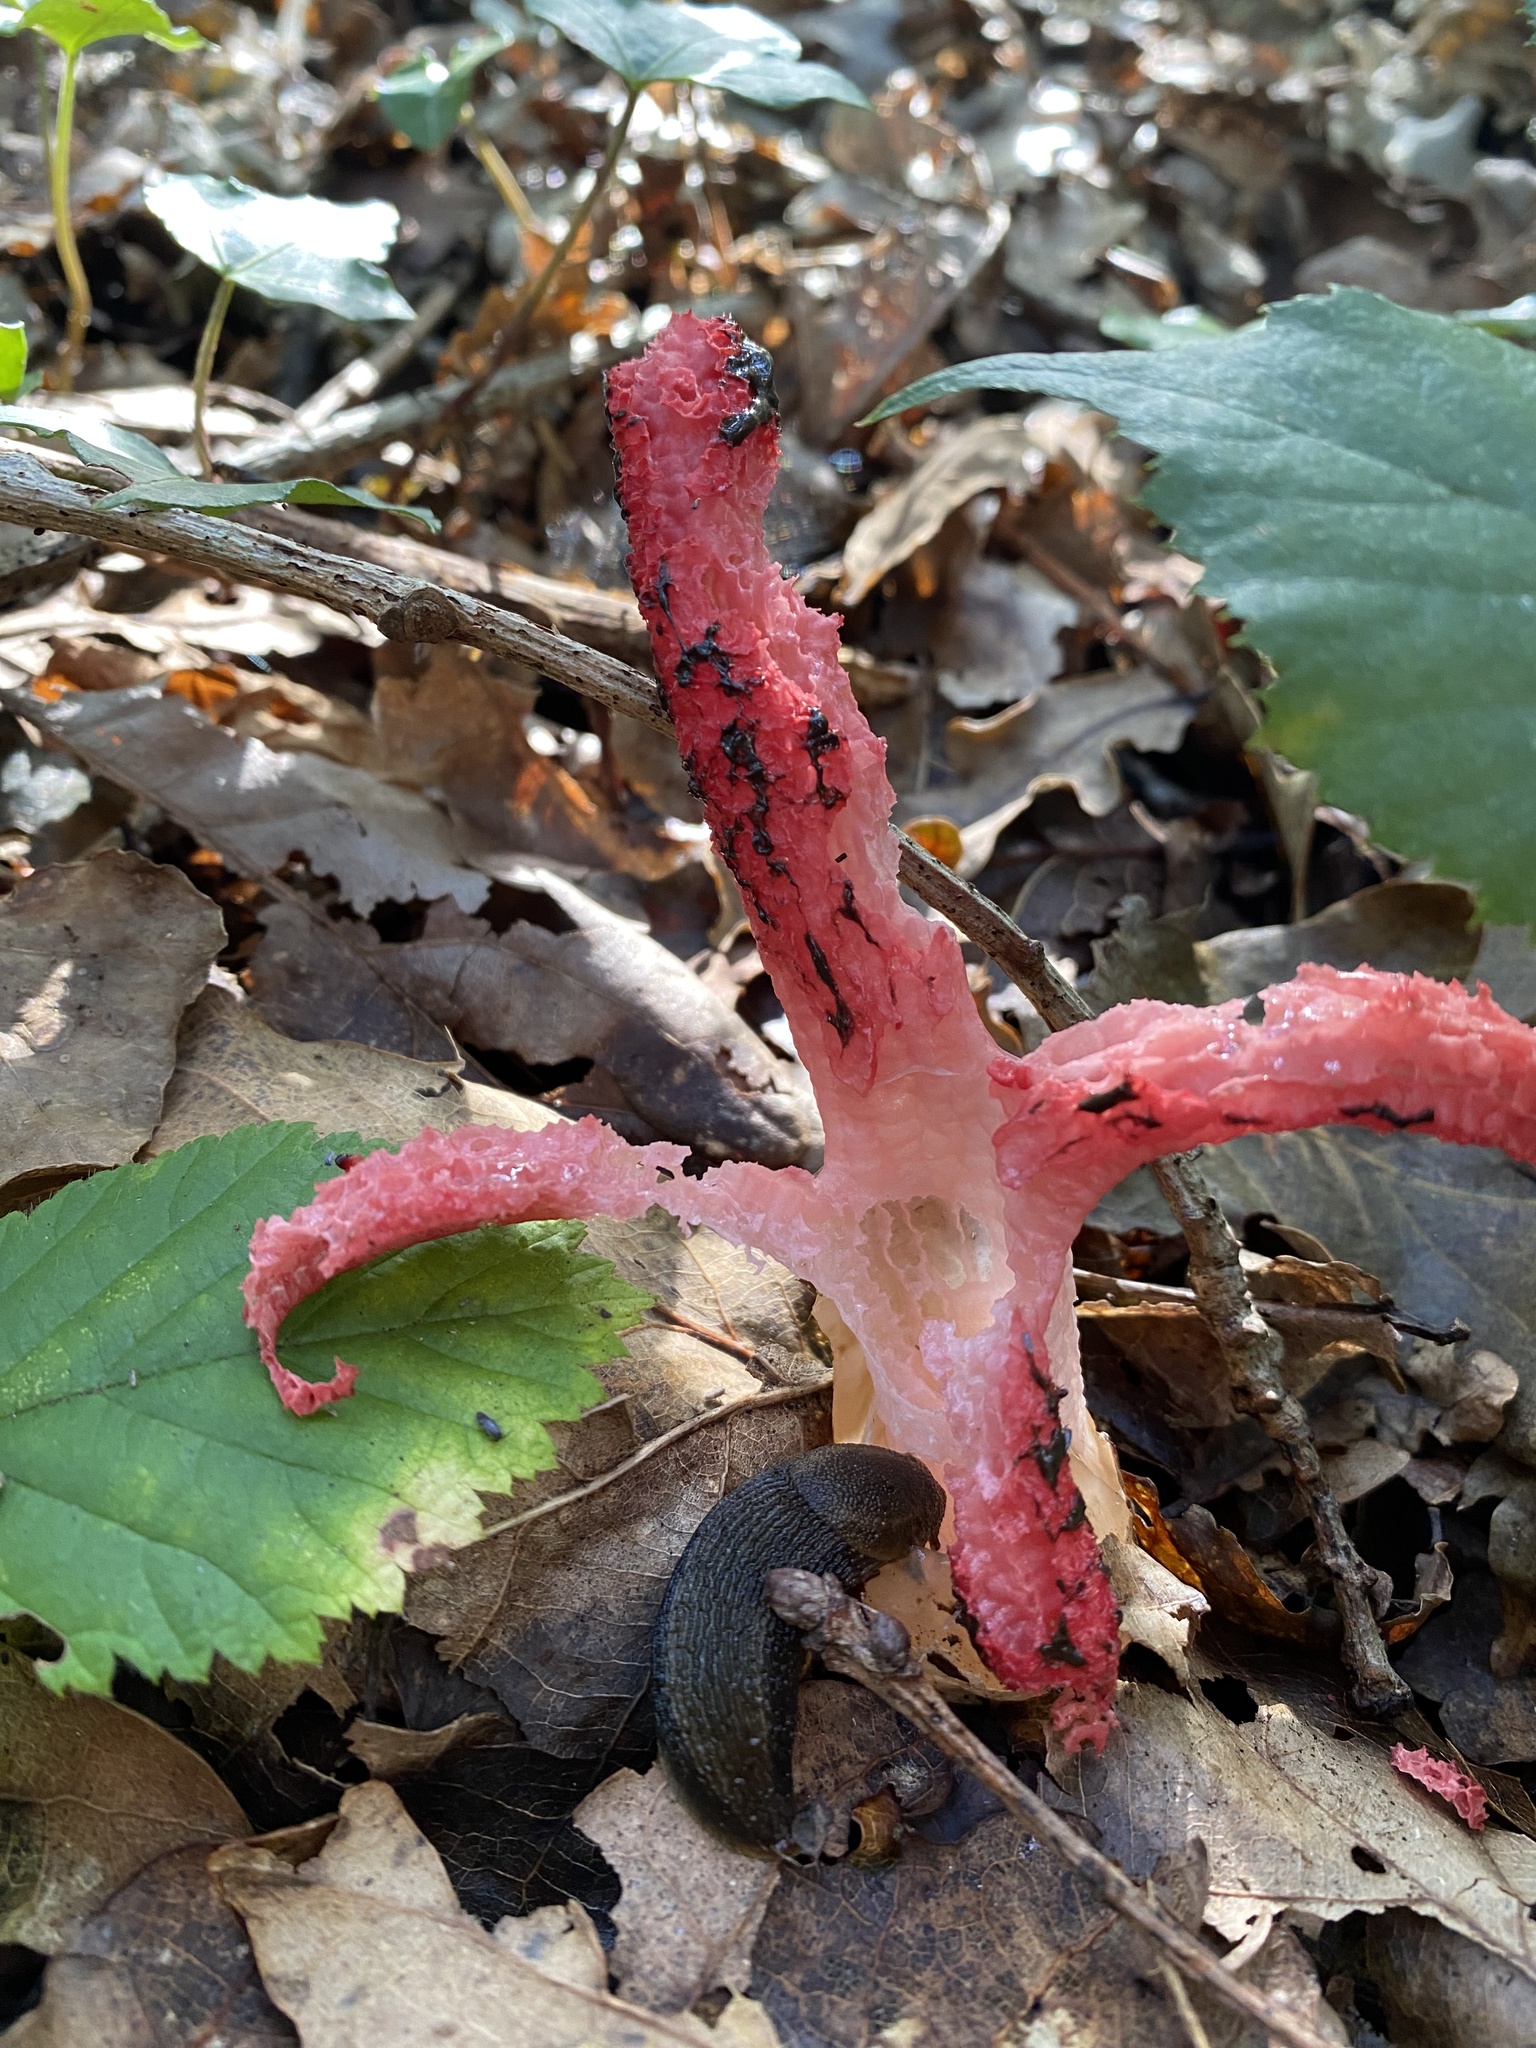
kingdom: Fungi
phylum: Basidiomycota
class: Agaricomycetes
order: Phallales
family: Phallaceae
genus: Clathrus
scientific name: Clathrus archeri
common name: Devil's fingers
